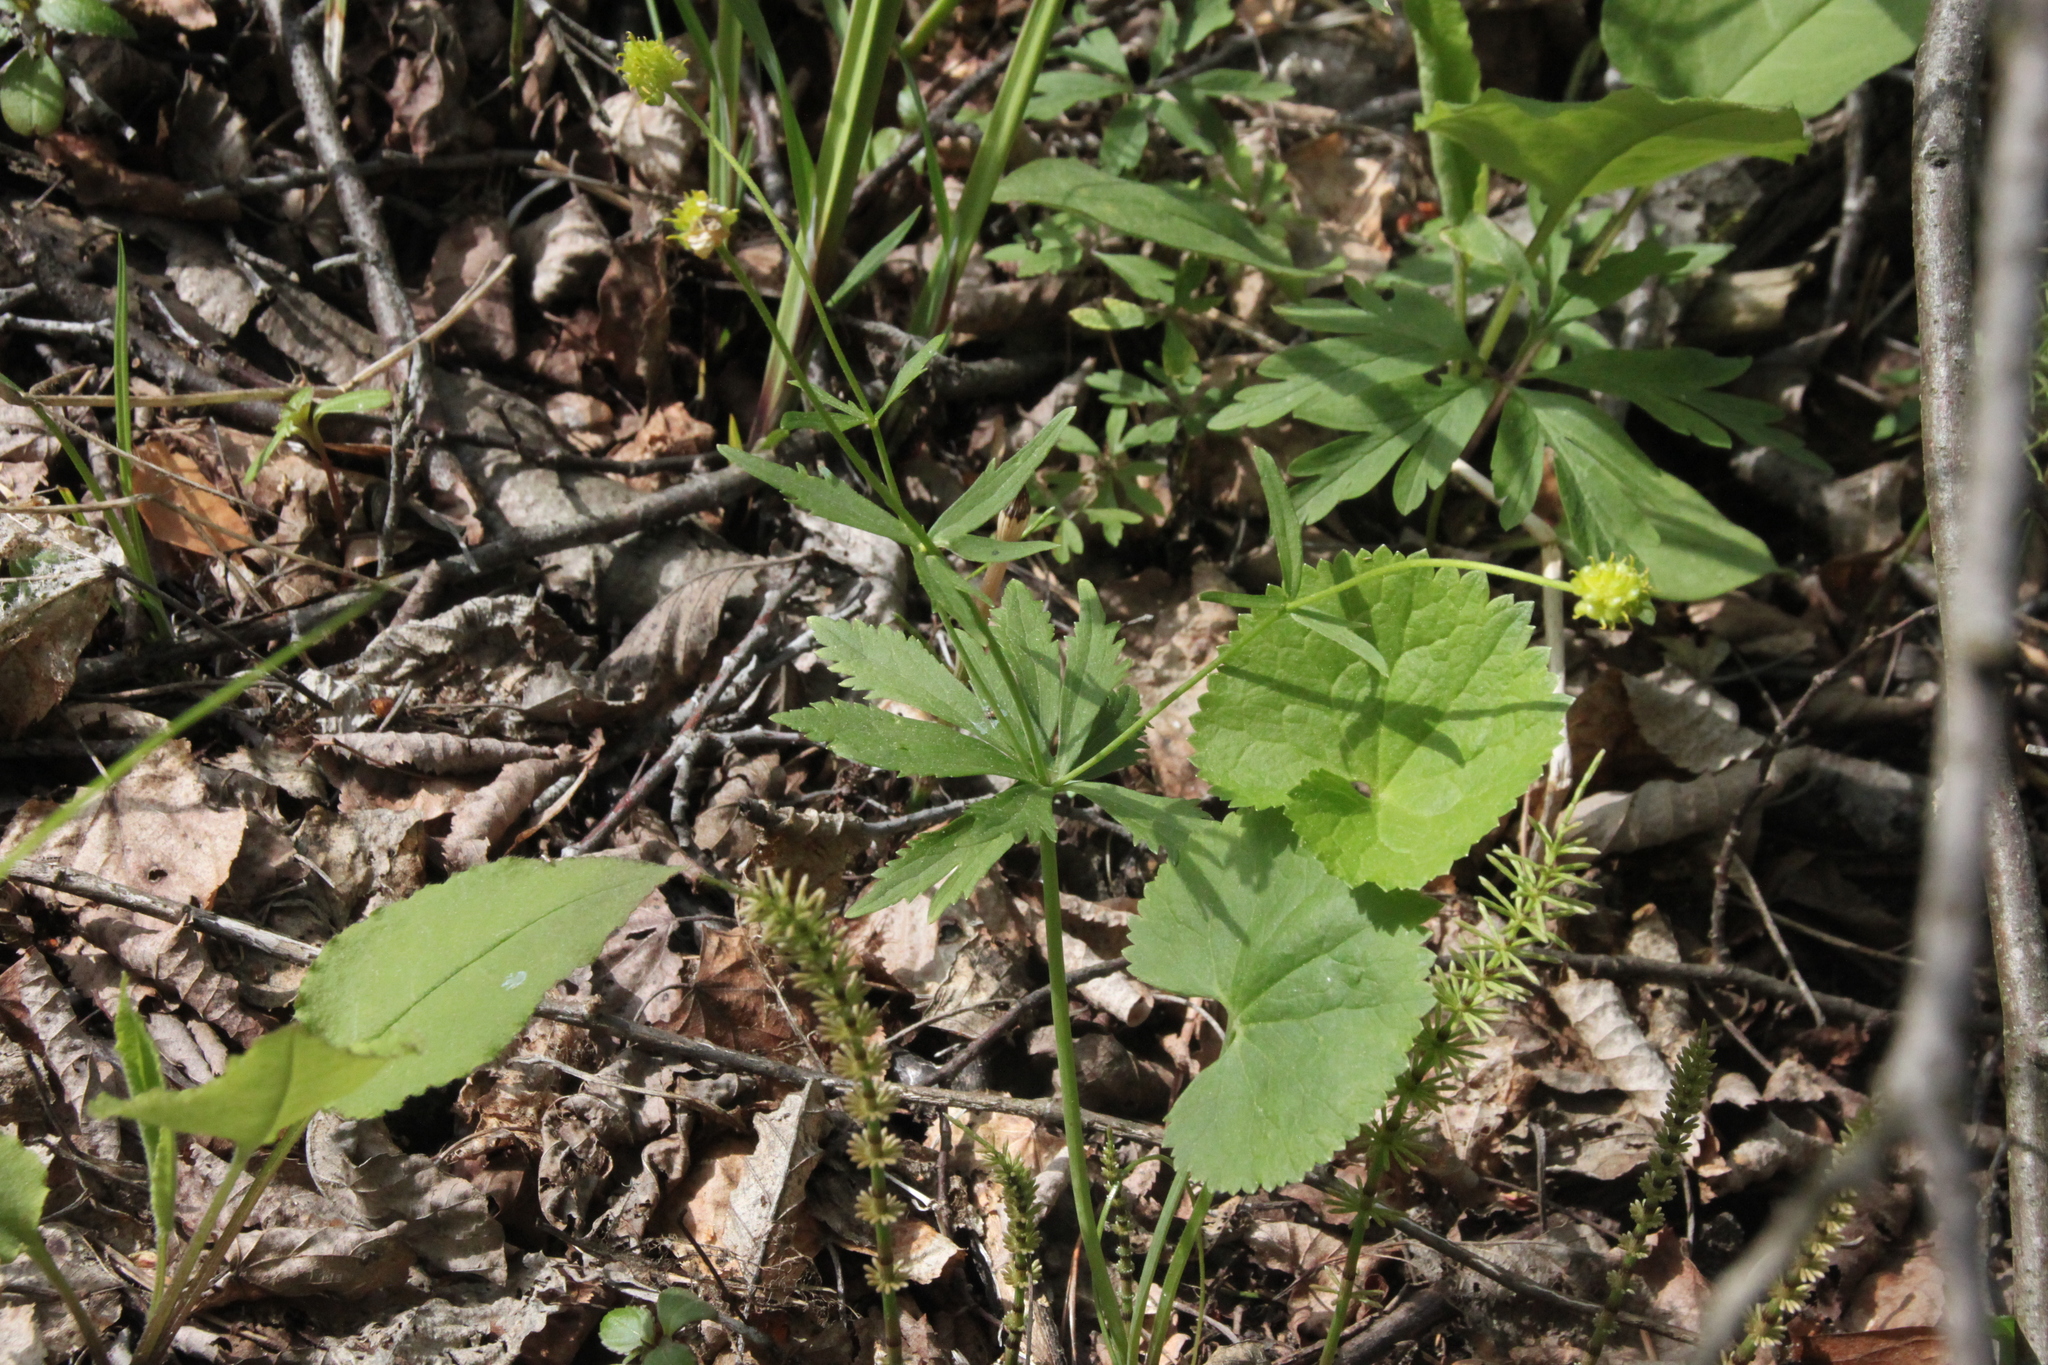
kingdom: Plantae
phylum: Tracheophyta
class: Magnoliopsida
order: Ranunculales
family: Ranunculaceae
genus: Ranunculus
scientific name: Ranunculus cassubicus
